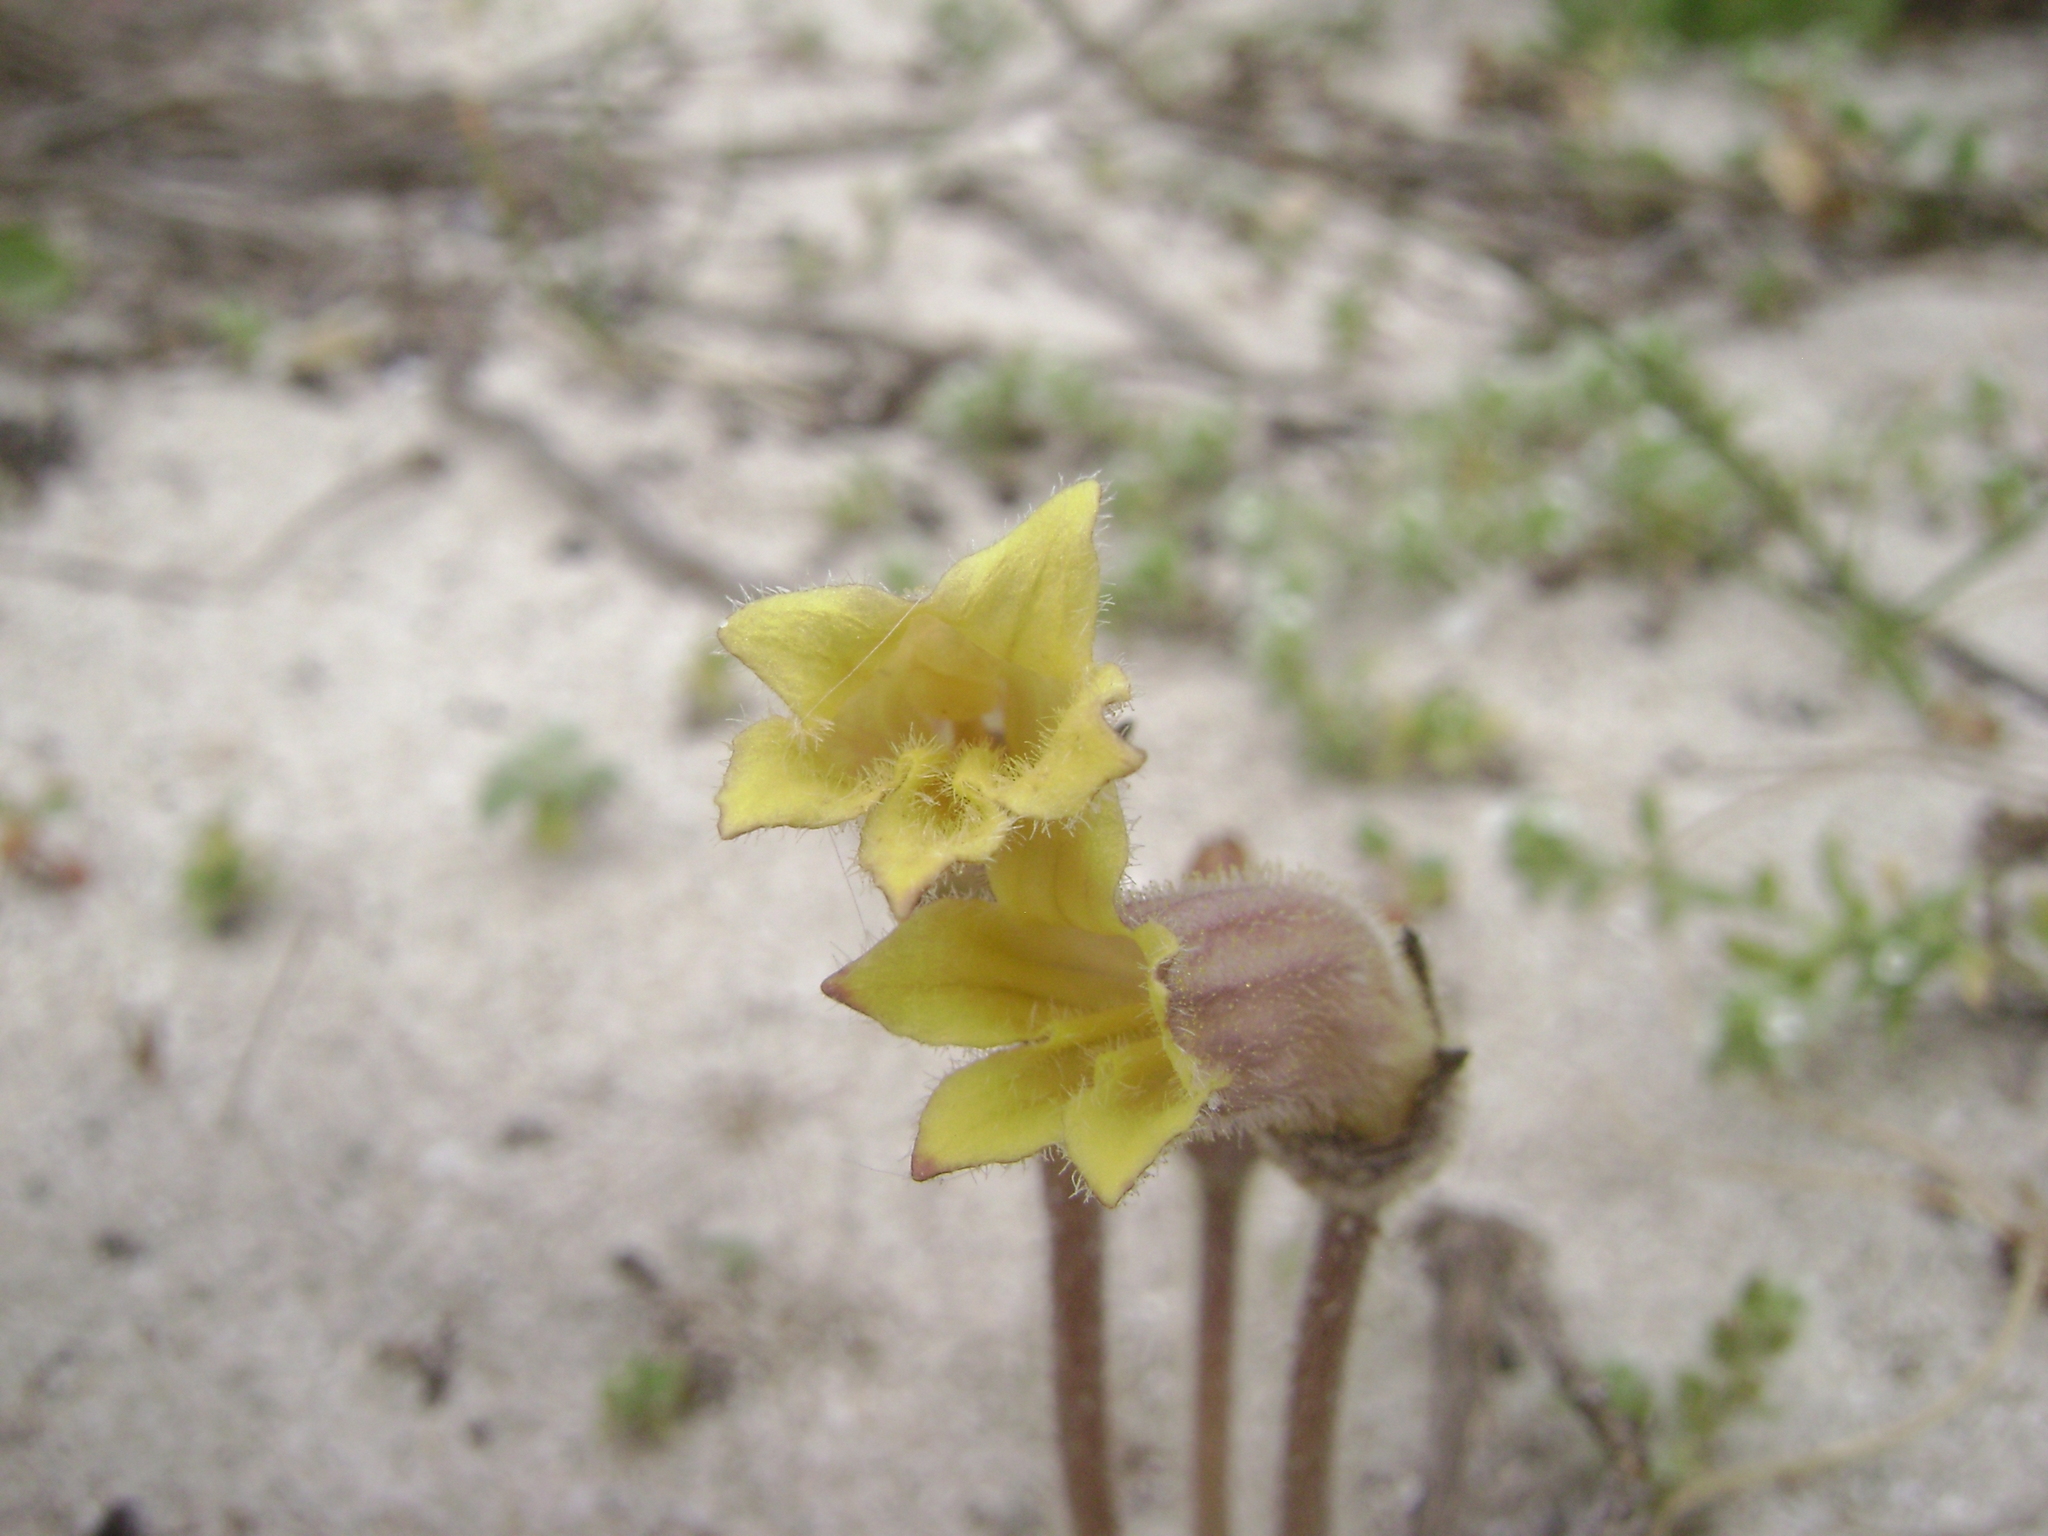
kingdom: Plantae
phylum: Tracheophyta
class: Magnoliopsida
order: Lamiales
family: Orobanchaceae
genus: Aphyllon
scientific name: Aphyllon franciscanum
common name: San francisco broomrape
